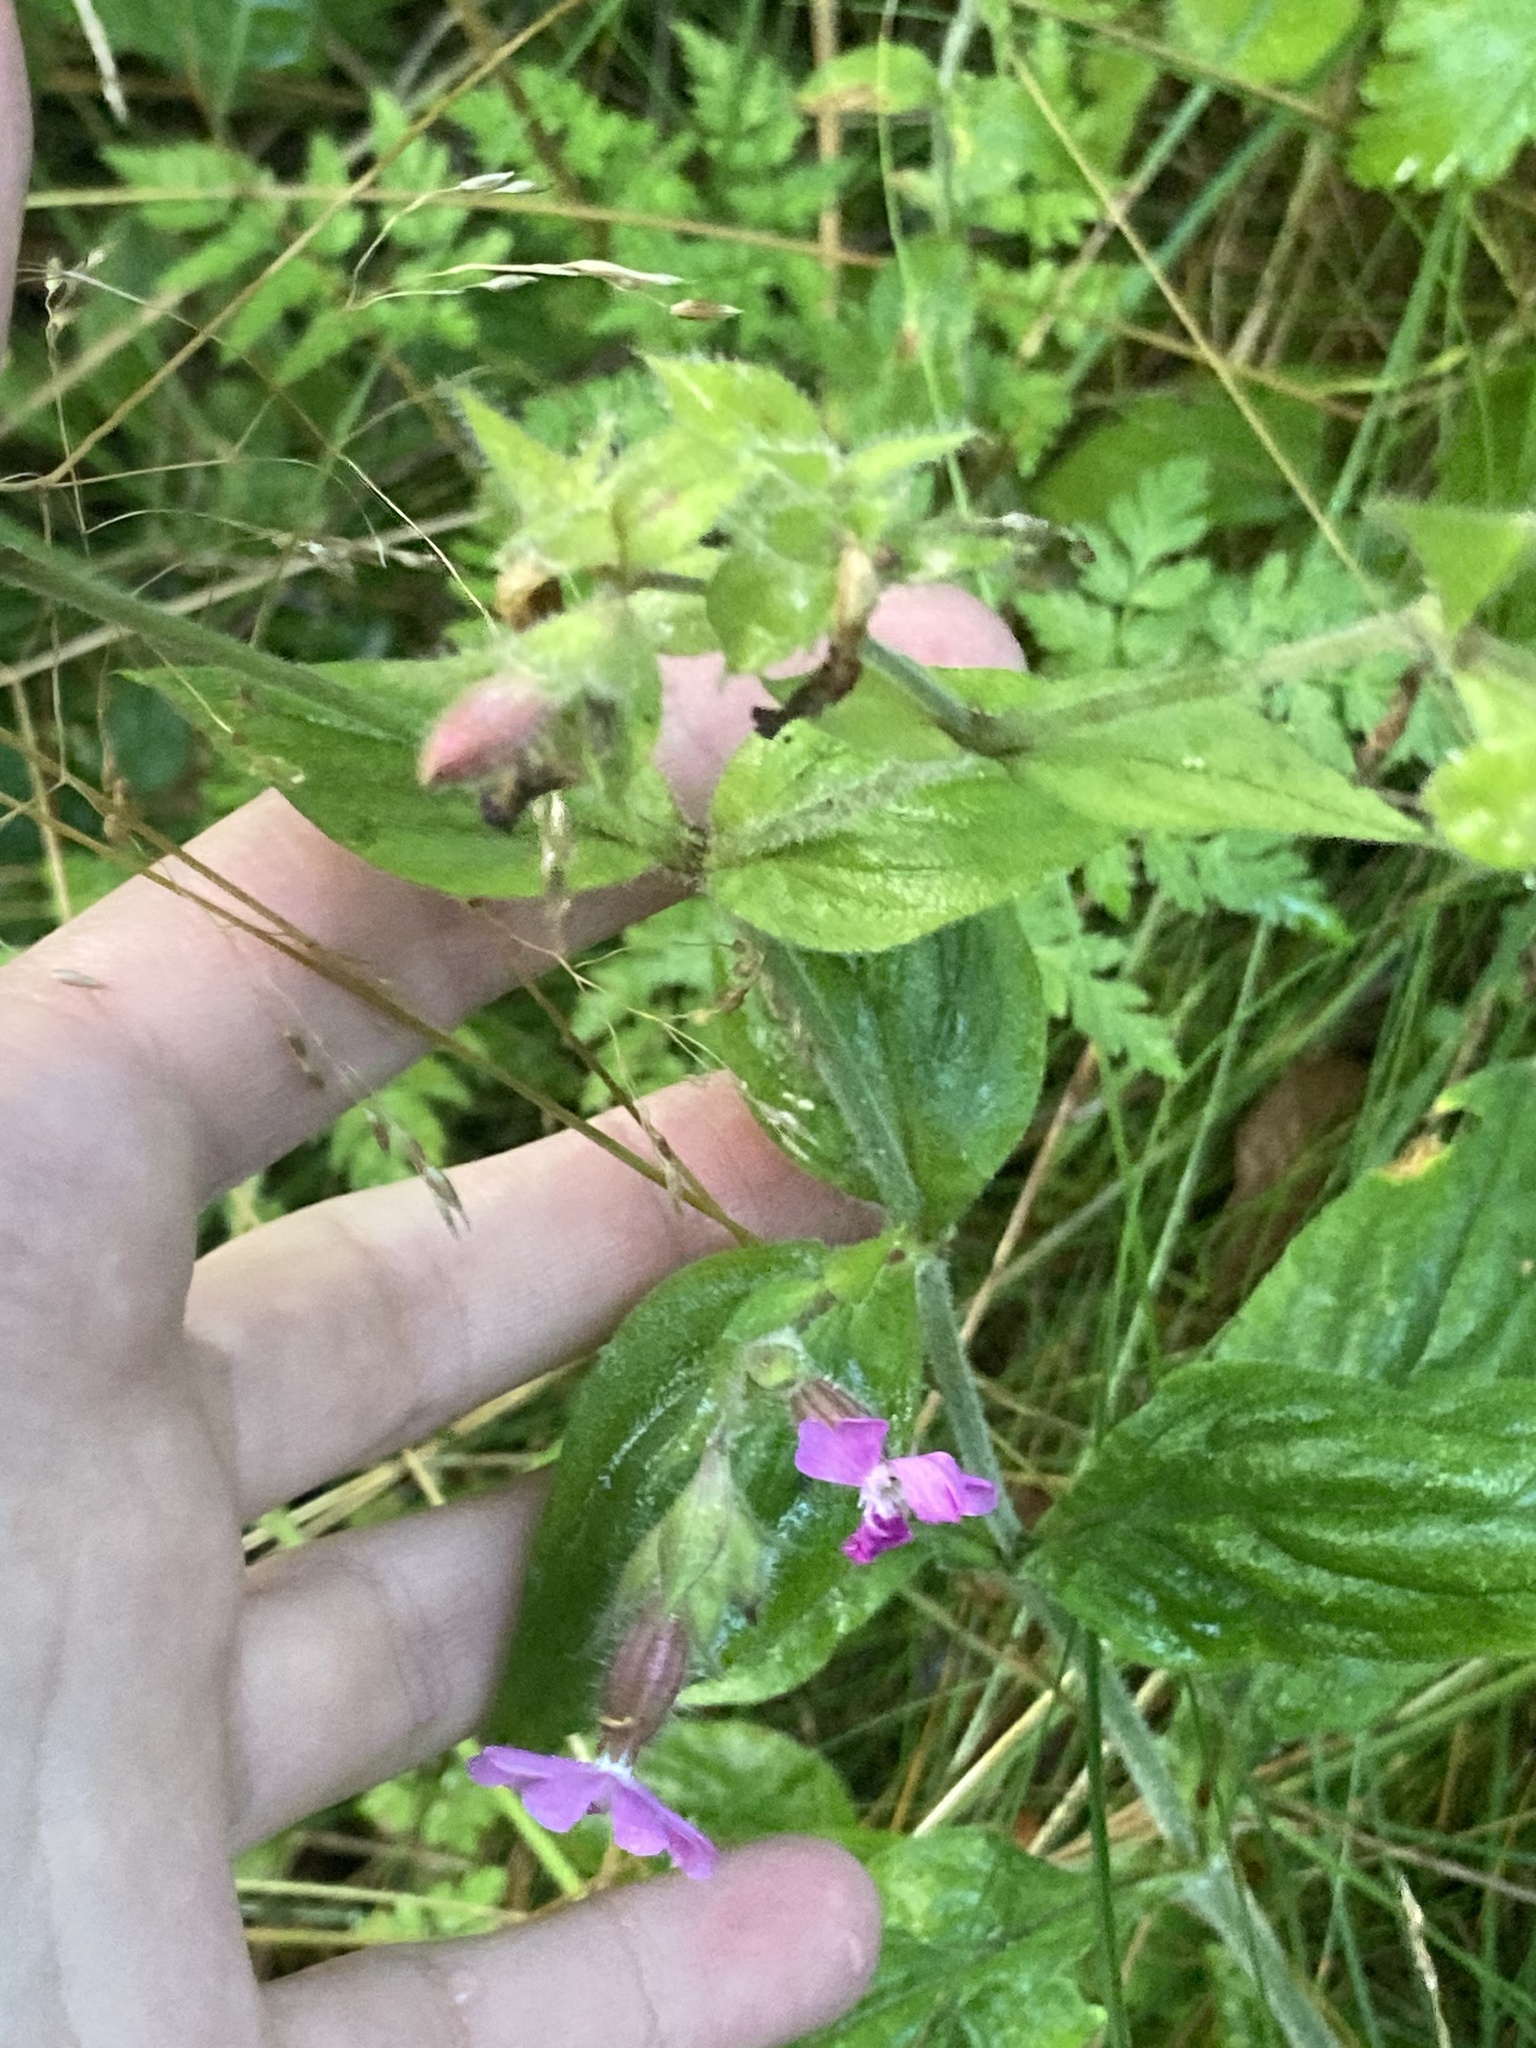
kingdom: Plantae
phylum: Tracheophyta
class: Magnoliopsida
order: Caryophyllales
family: Caryophyllaceae
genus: Silene
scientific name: Silene dioica
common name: Red campion
